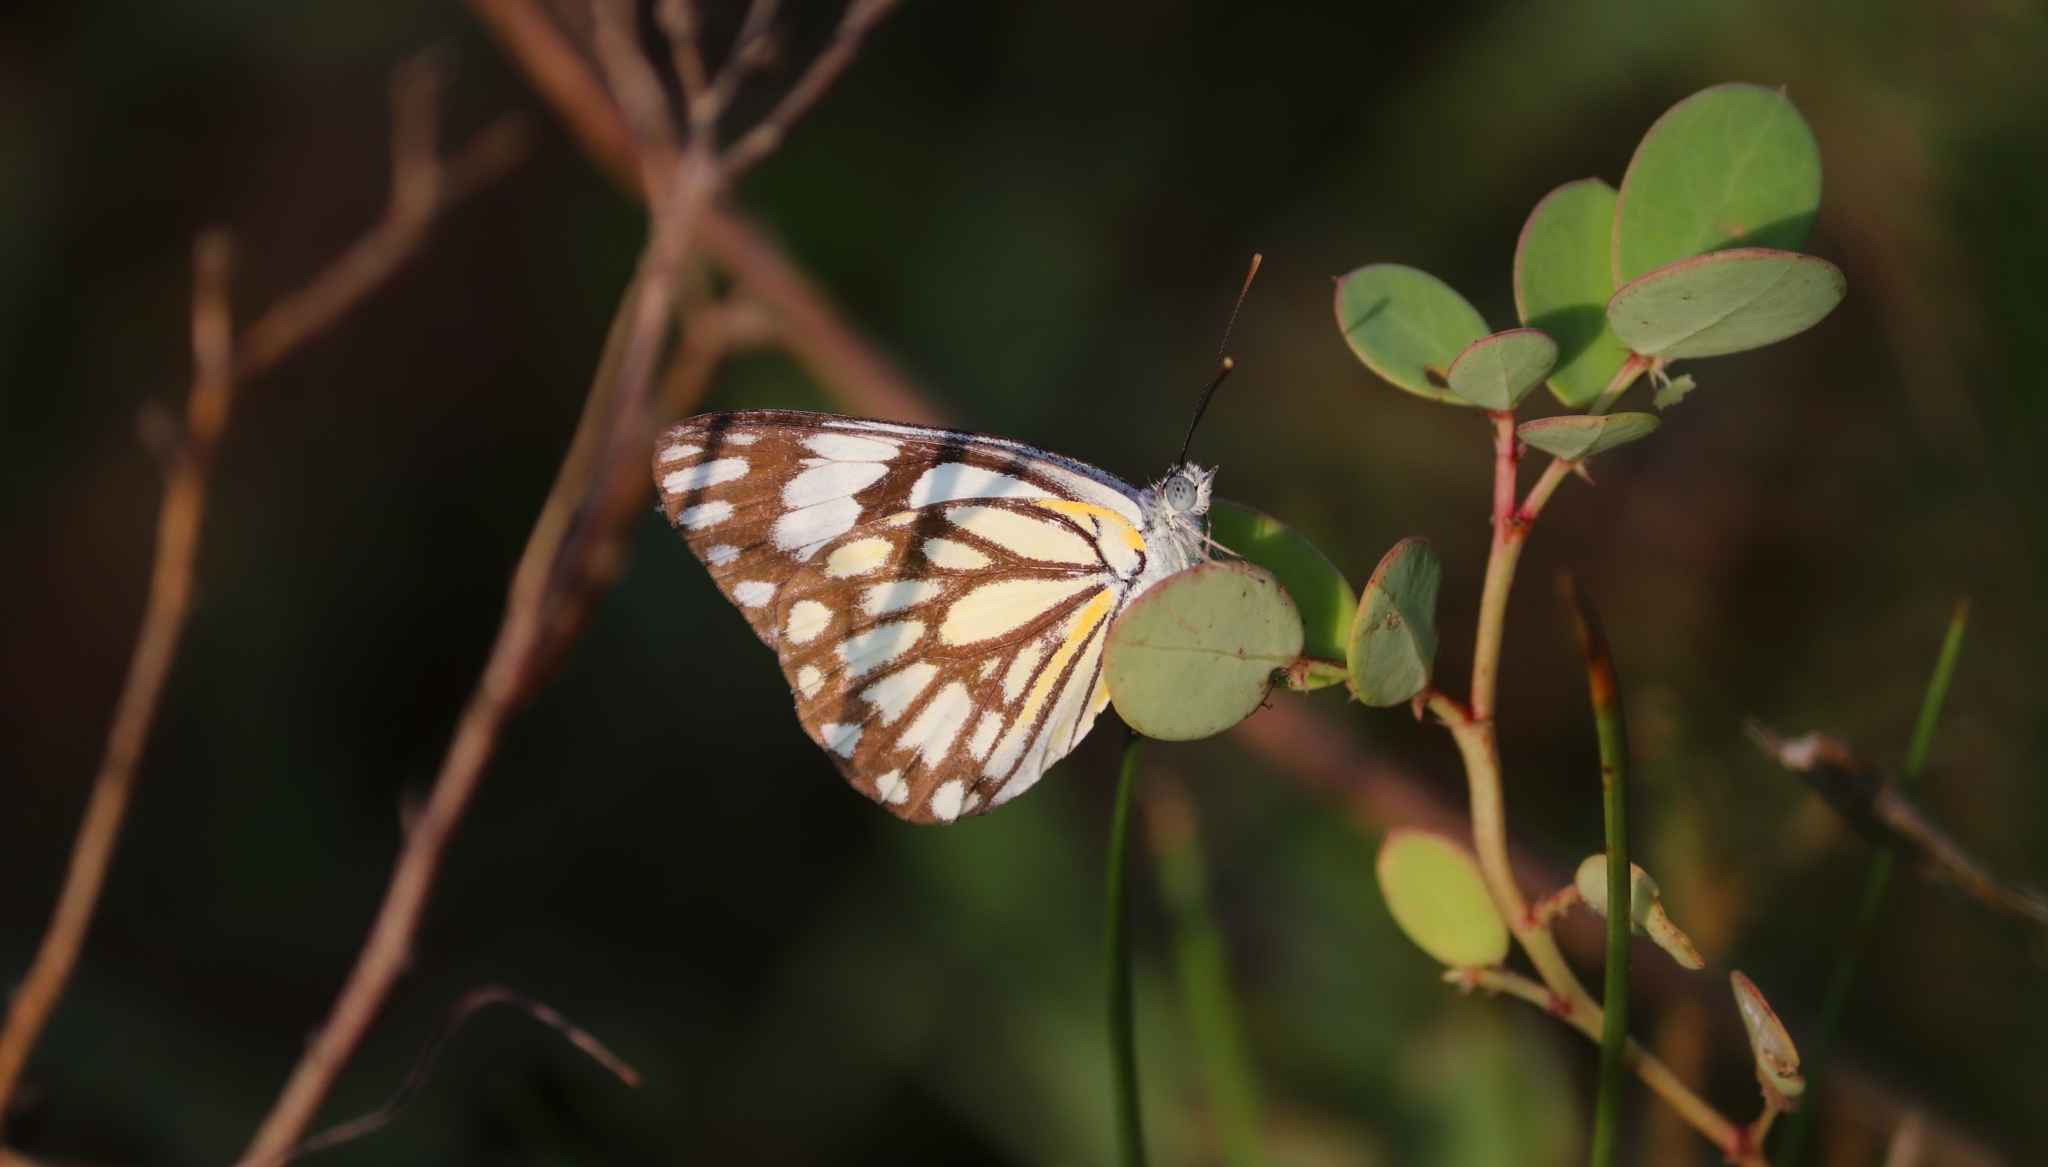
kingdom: Animalia
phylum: Arthropoda
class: Insecta
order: Lepidoptera
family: Pieridae
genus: Belenois
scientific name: Belenois aurota
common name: Brown-veined white
